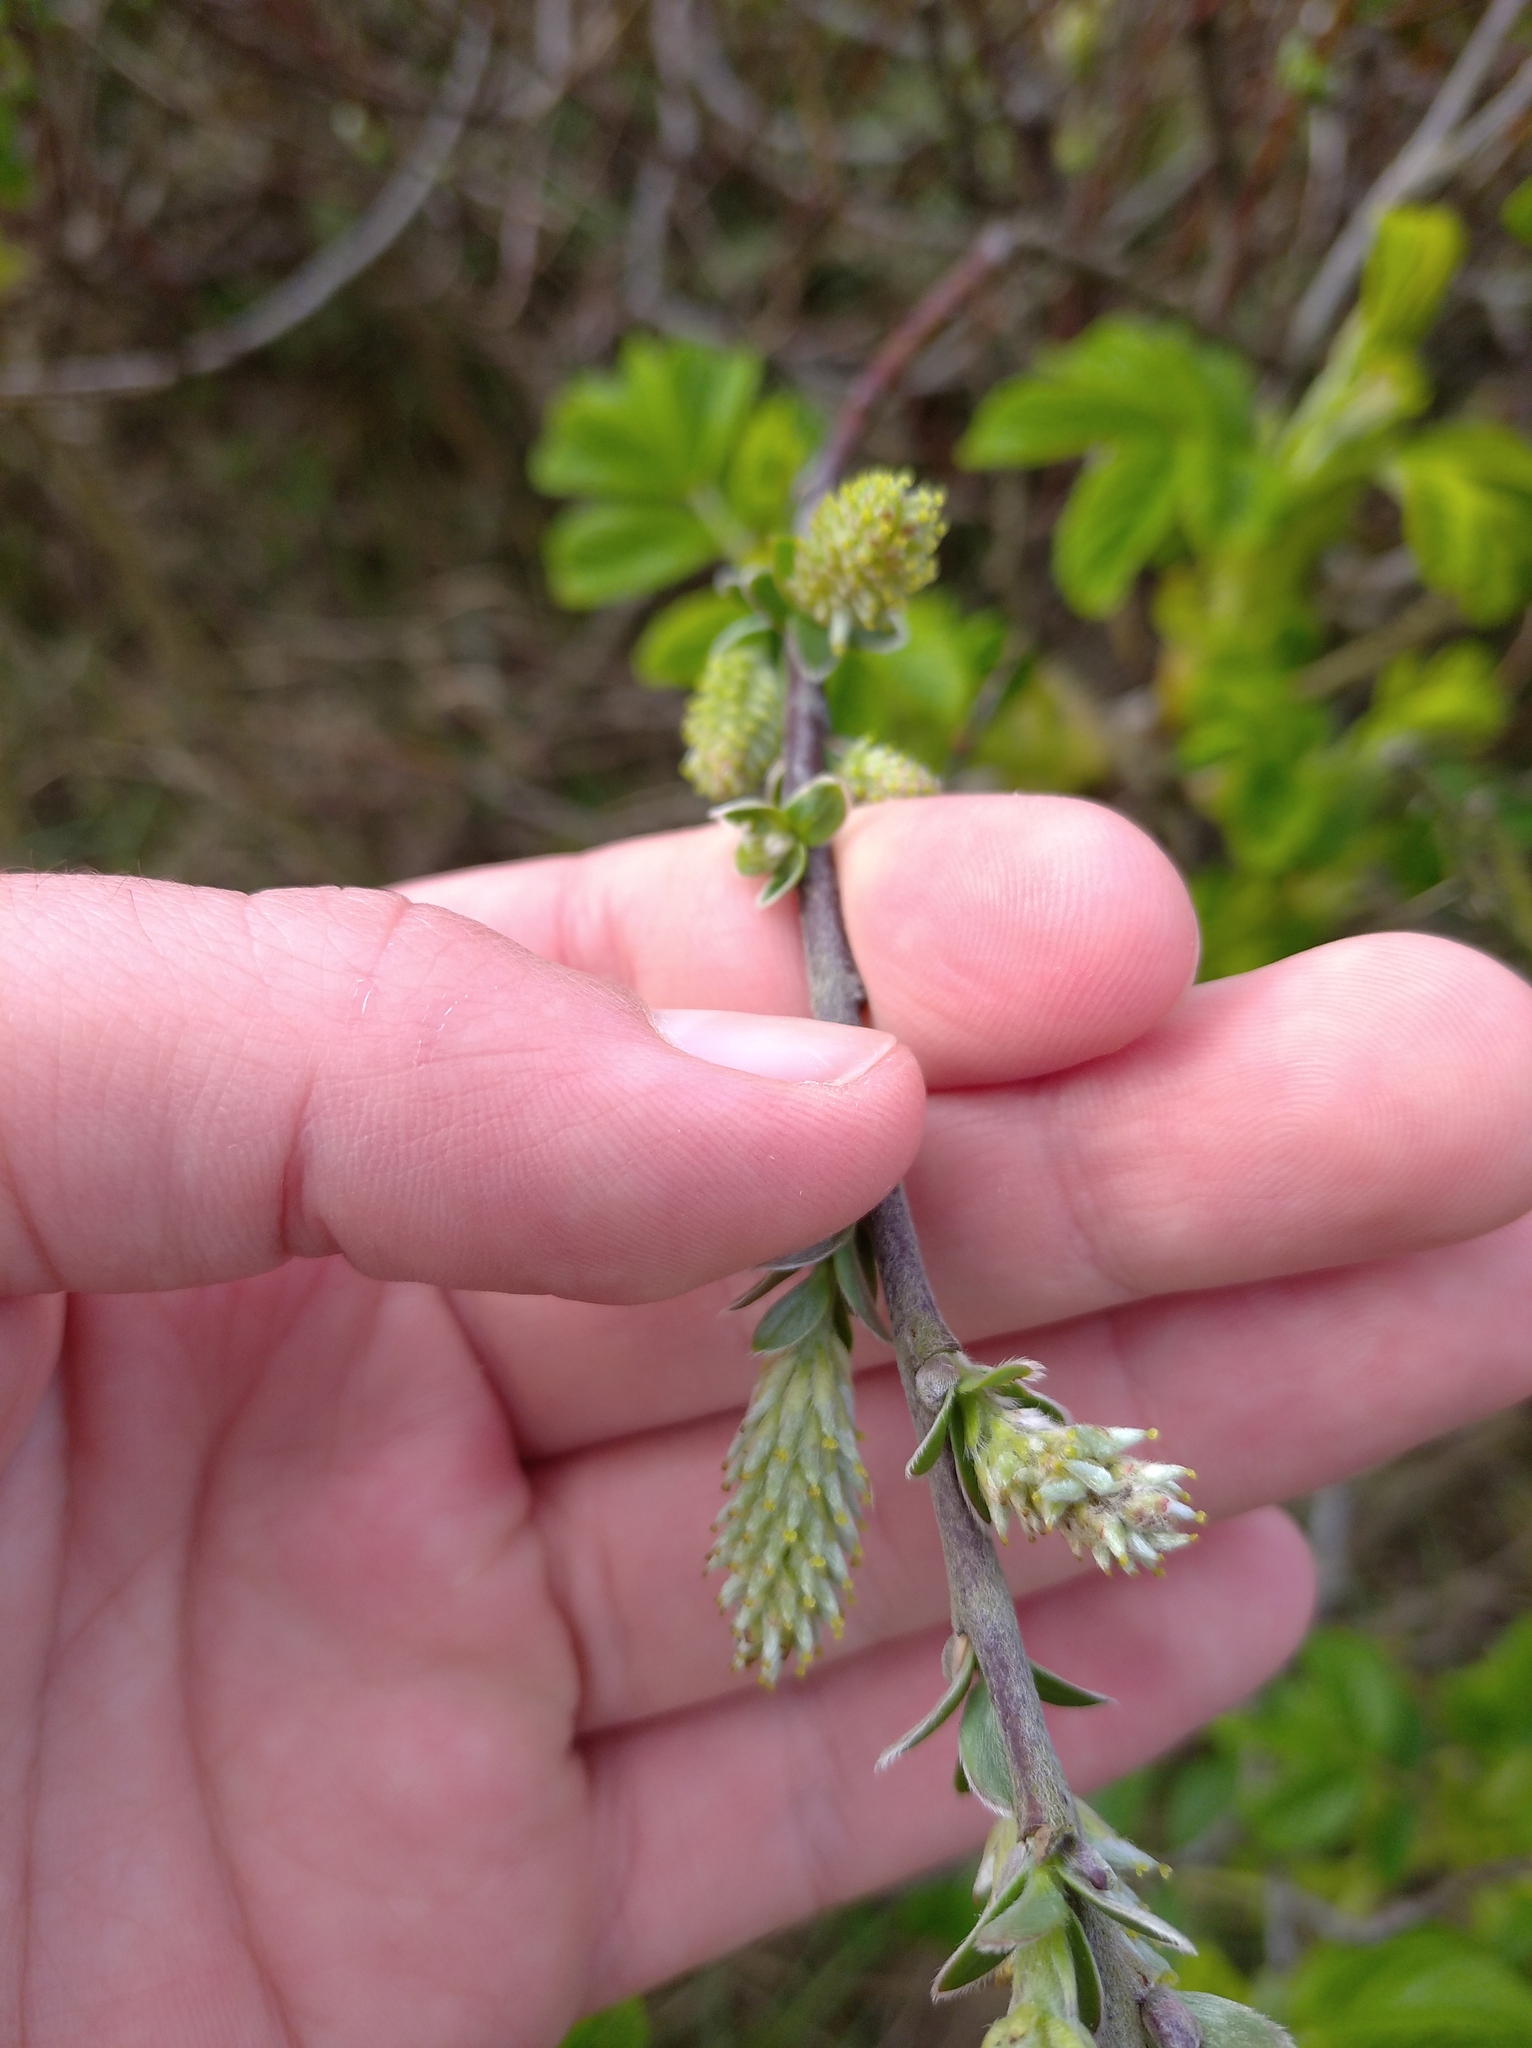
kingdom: Plantae
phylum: Tracheophyta
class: Magnoliopsida
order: Malpighiales
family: Salicaceae
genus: Salix
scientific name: Salix repens
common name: Creeping willow
